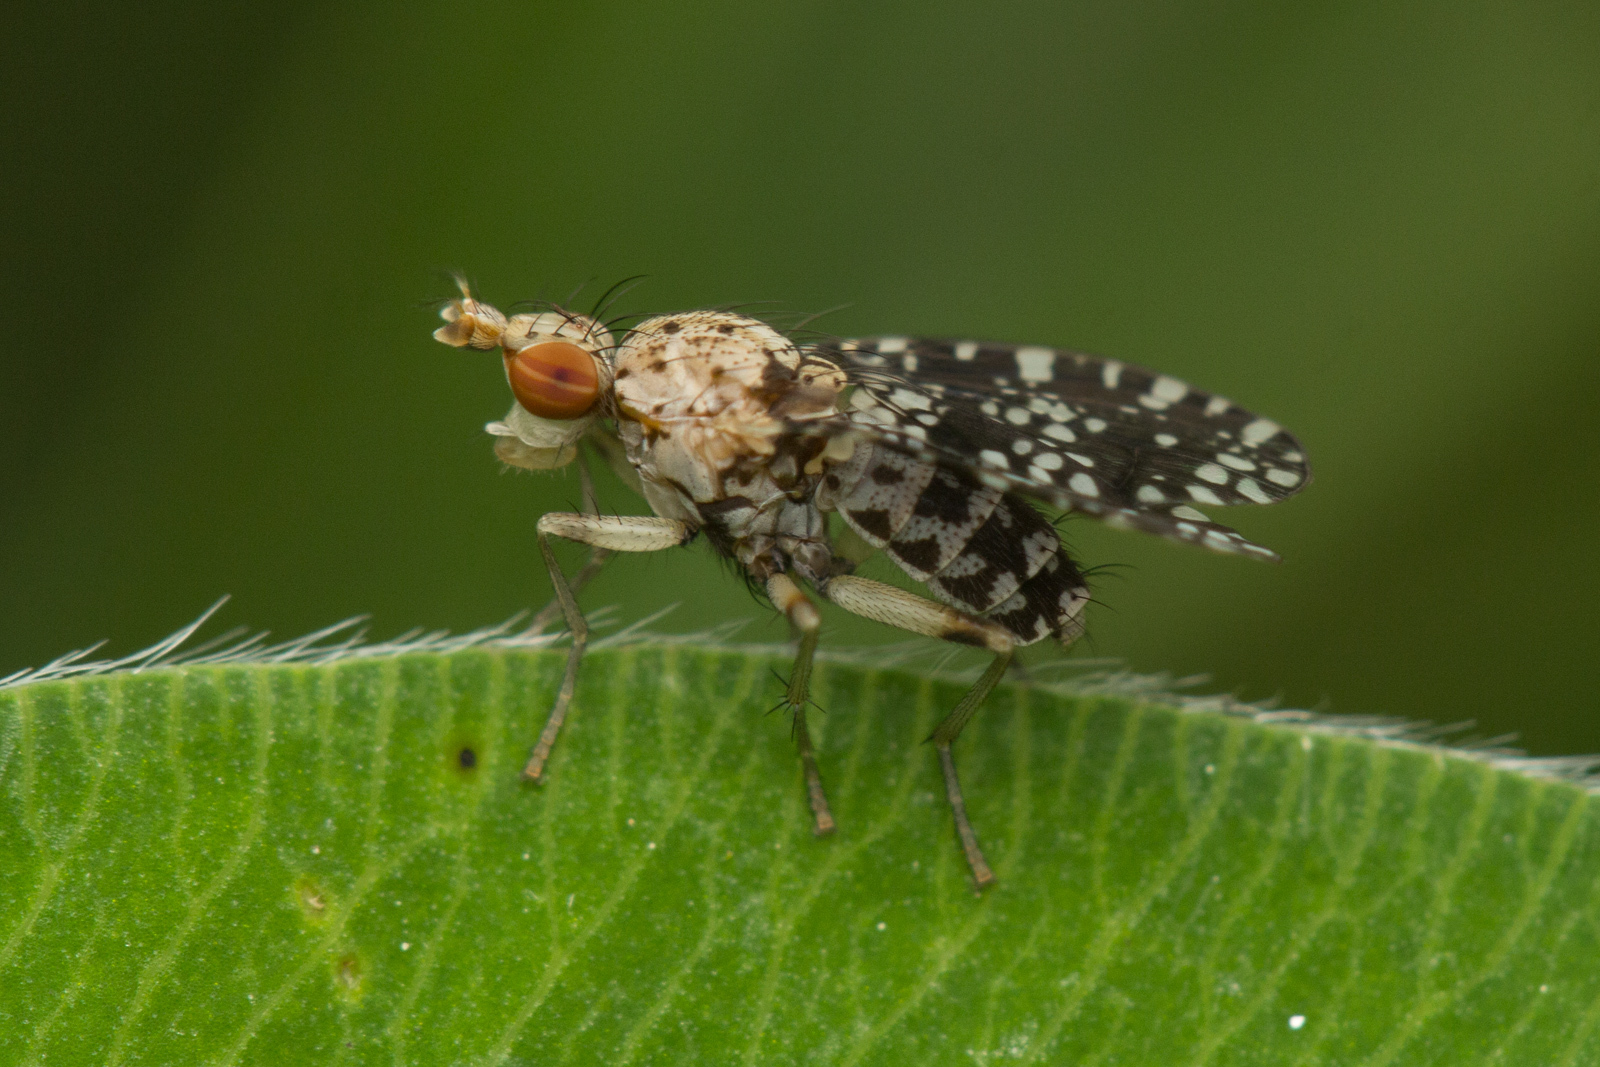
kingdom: Animalia
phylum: Arthropoda
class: Insecta
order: Diptera
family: Sciomyzidae
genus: Trypetoptera
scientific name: Trypetoptera punctulata
